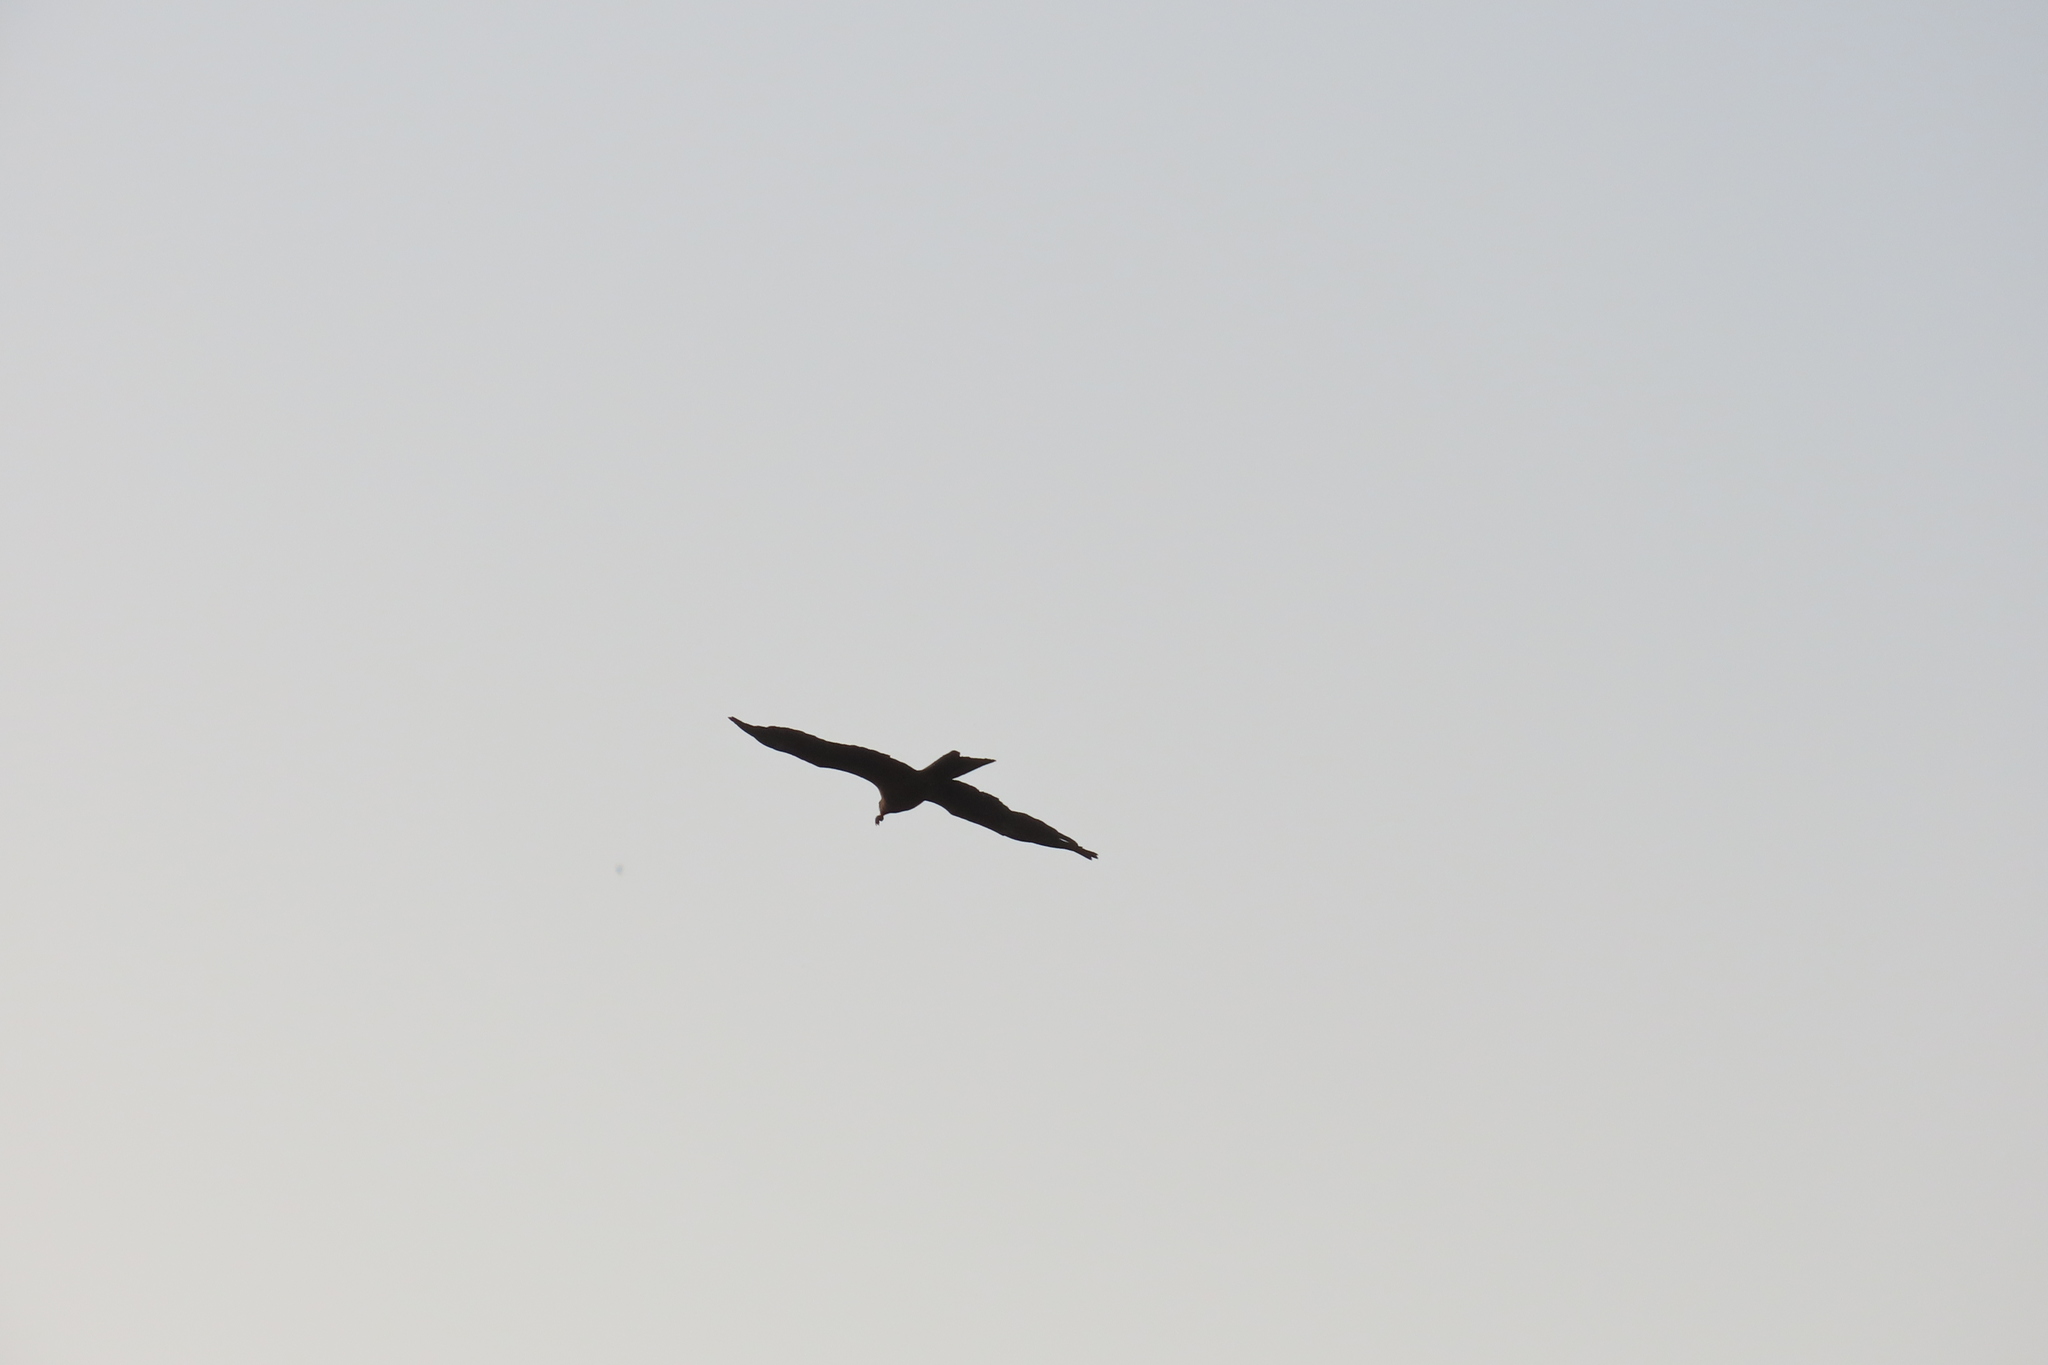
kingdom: Animalia
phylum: Chordata
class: Aves
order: Accipitriformes
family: Accipitridae
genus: Milvus
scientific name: Milvus migrans
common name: Black kite
